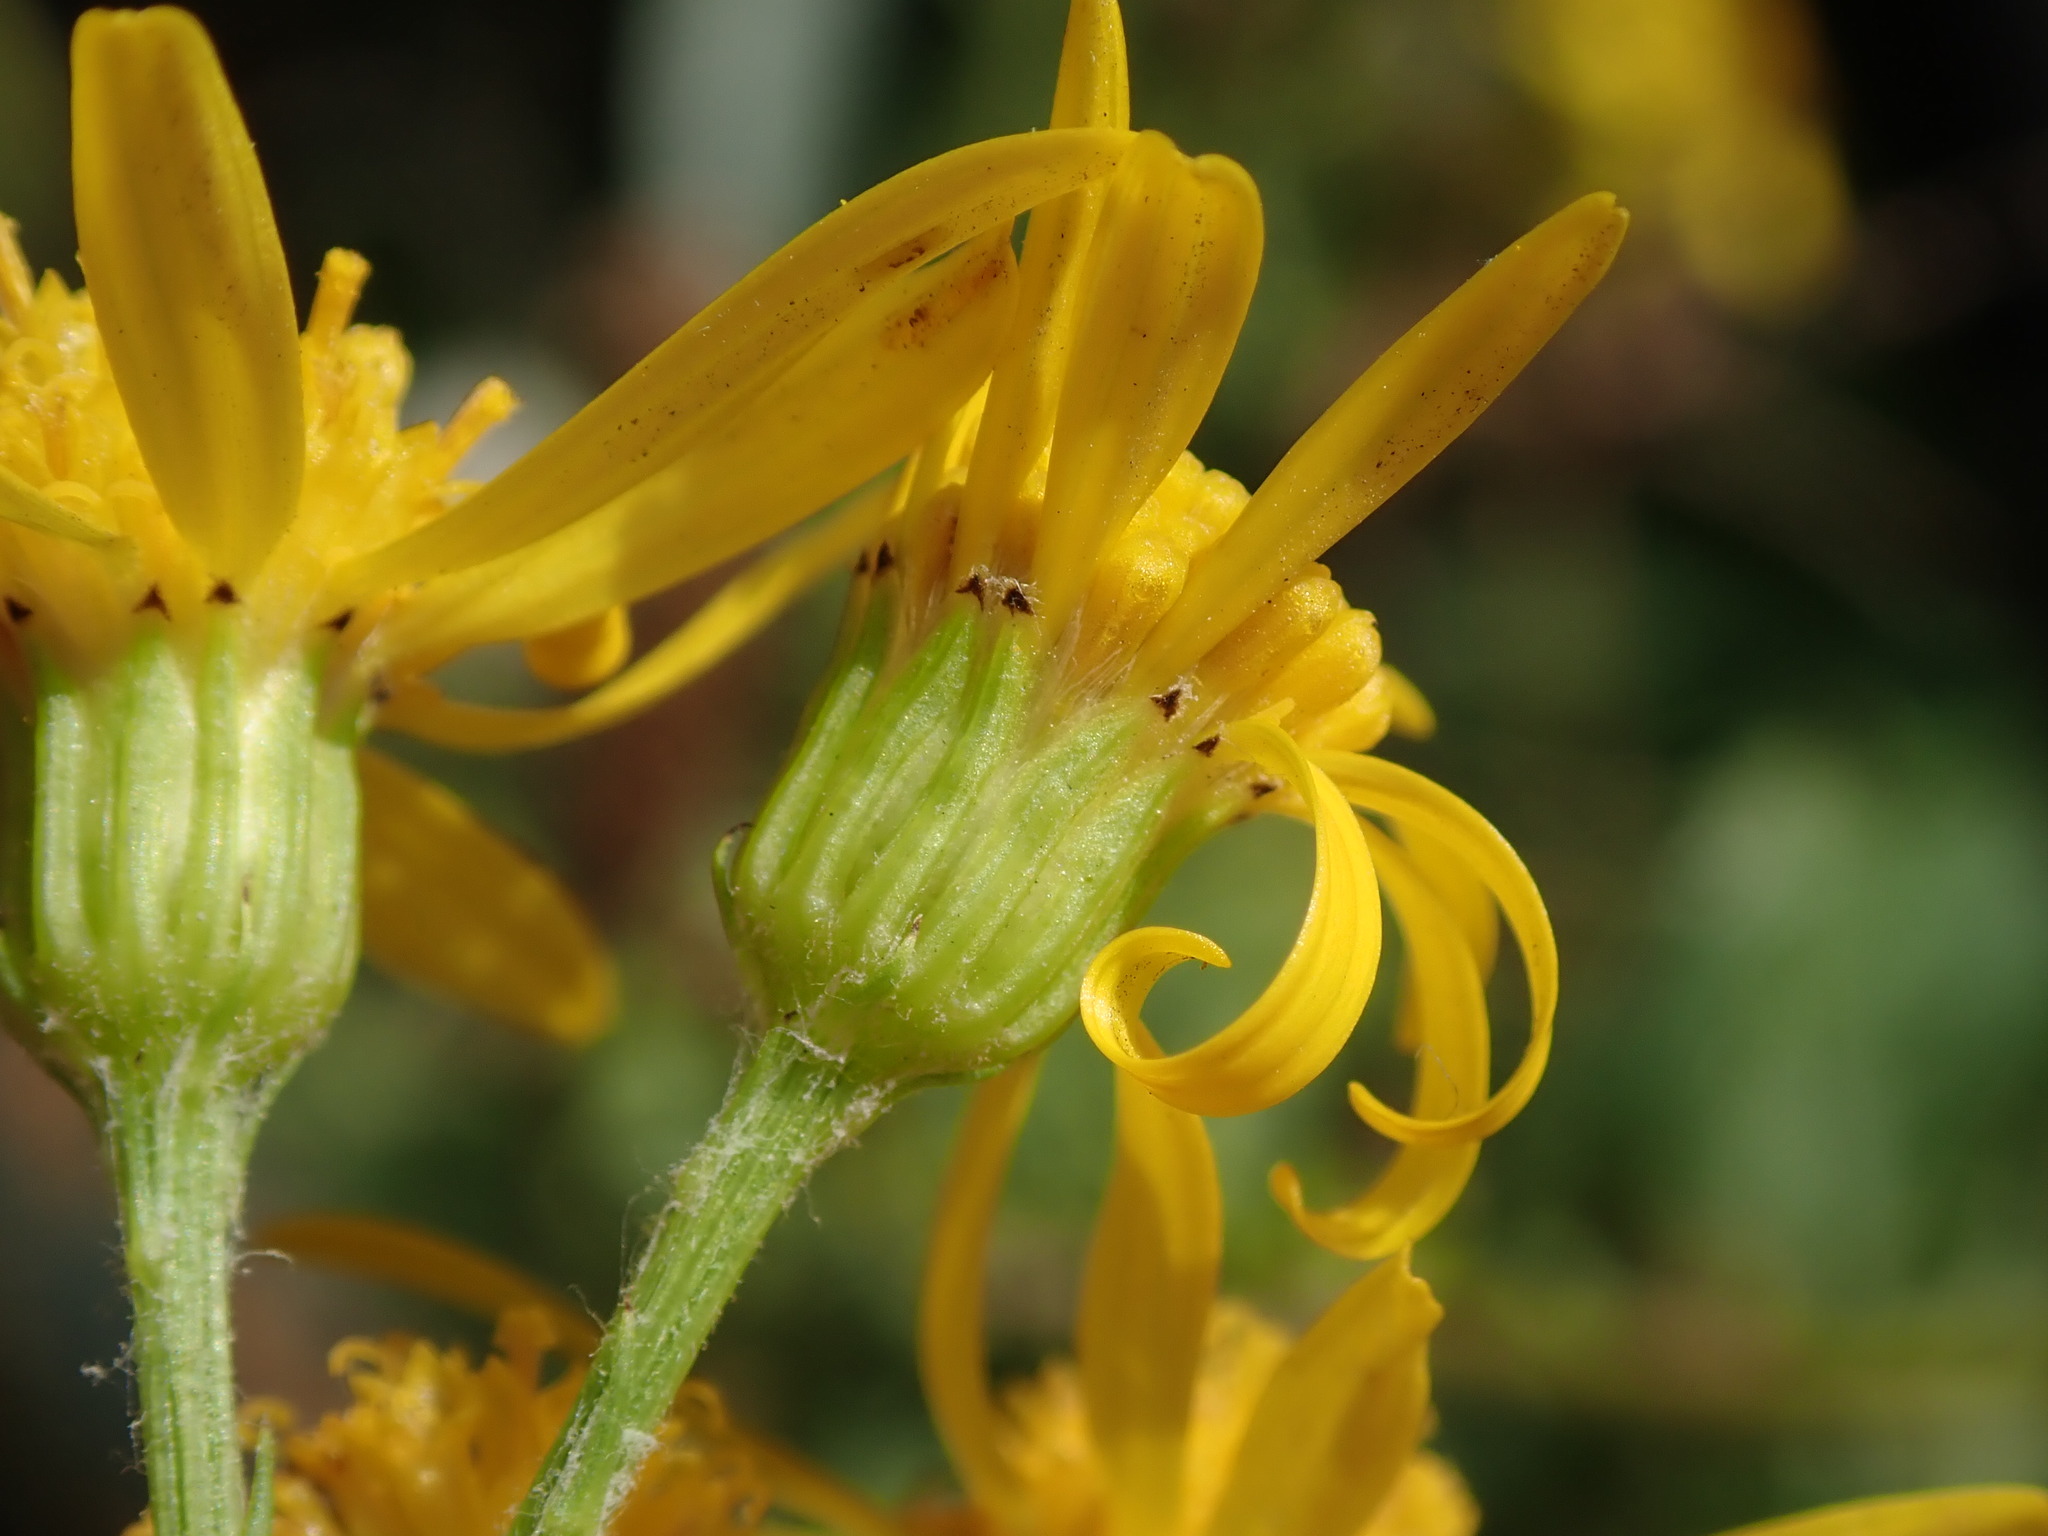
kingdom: Plantae
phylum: Tracheophyta
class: Magnoliopsida
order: Asterales
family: Asteraceae
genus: Jacobaea
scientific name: Jacobaea vulgaris
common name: Stinking willie
